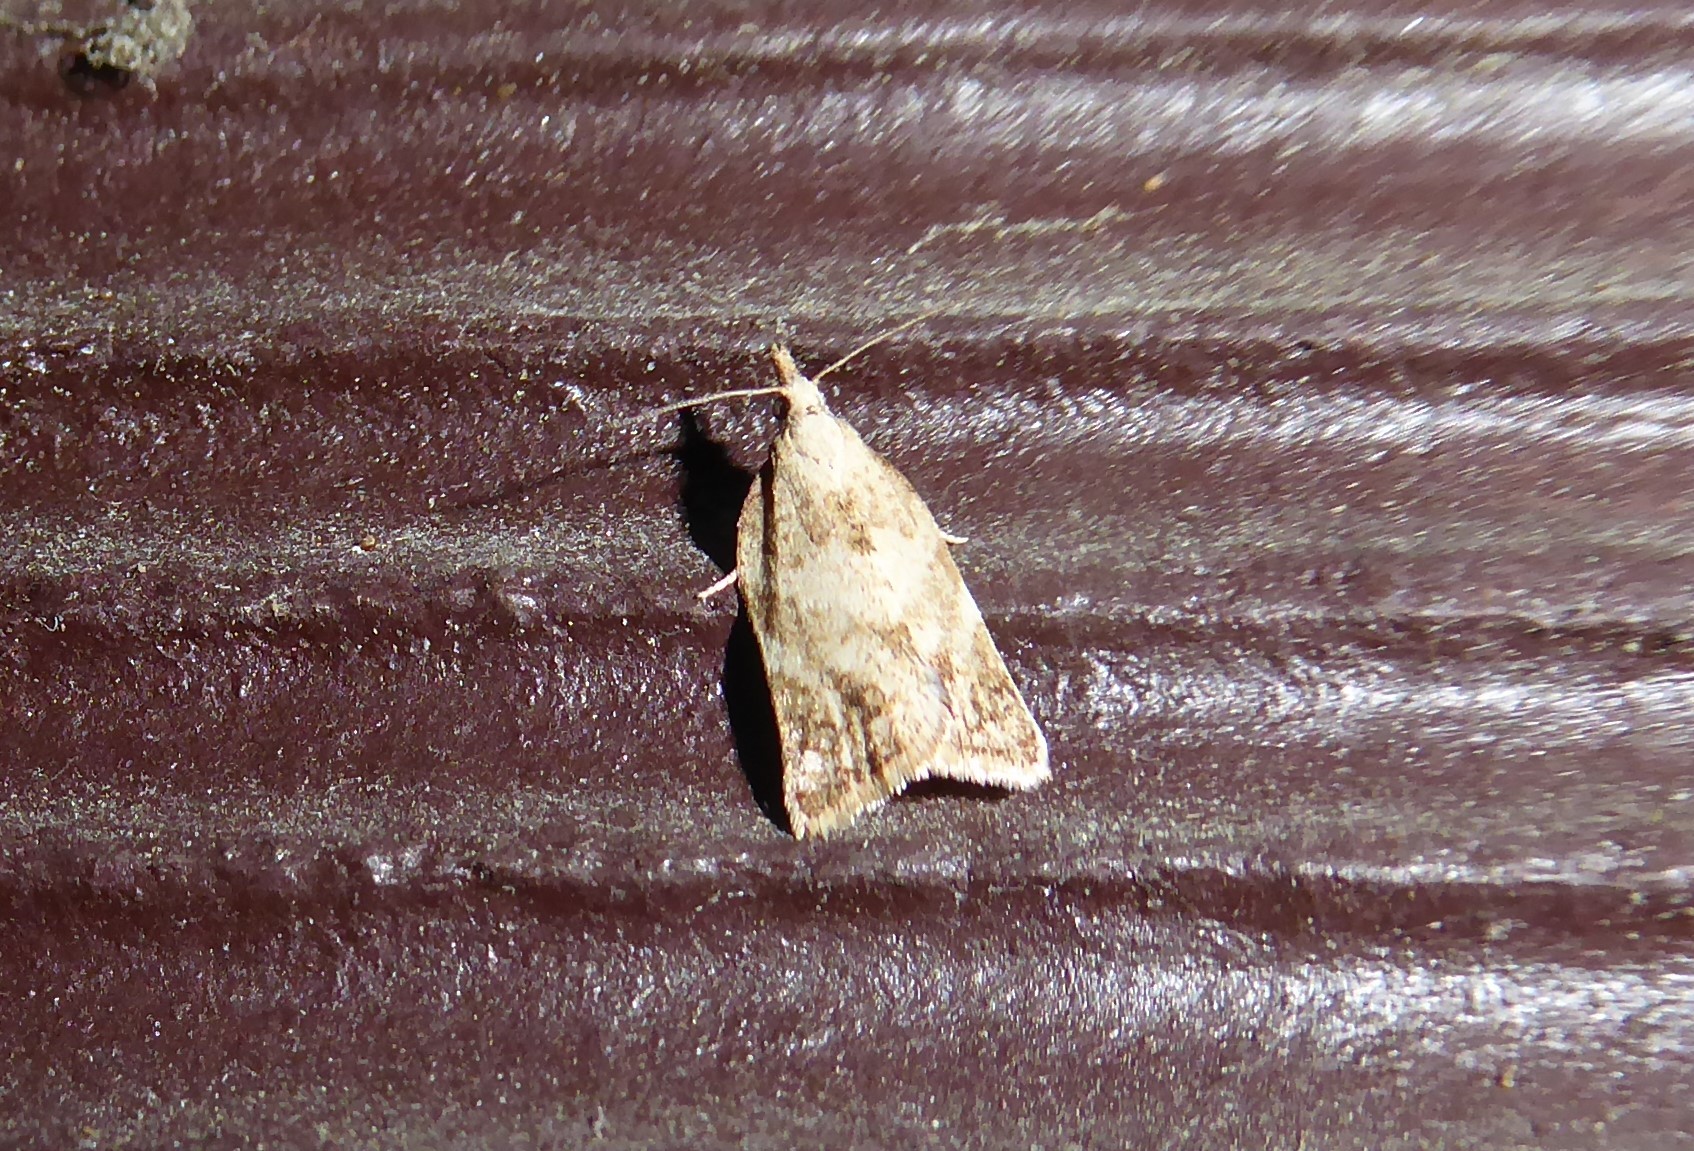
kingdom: Animalia
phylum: Arthropoda
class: Insecta
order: Lepidoptera
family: Tortricidae
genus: Catamacta
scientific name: Catamacta gavisana
